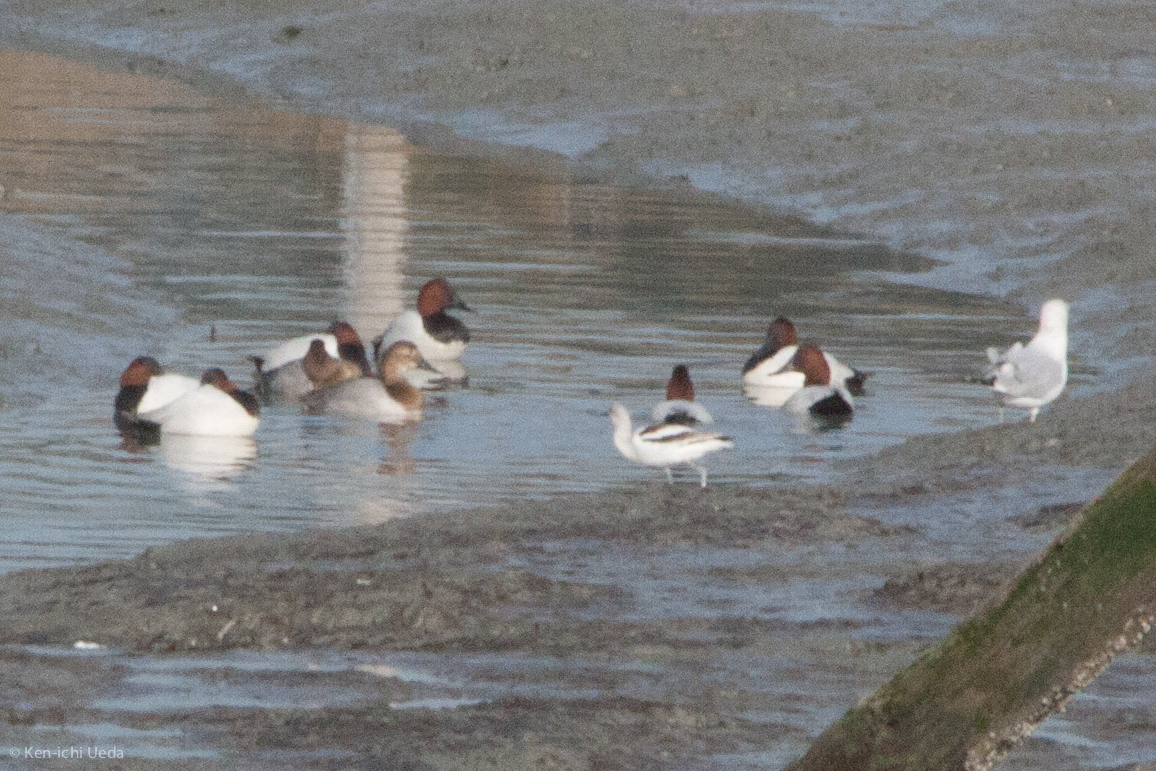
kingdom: Animalia
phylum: Chordata
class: Aves
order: Anseriformes
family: Anatidae
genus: Aythya
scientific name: Aythya valisineria
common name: Canvasback
